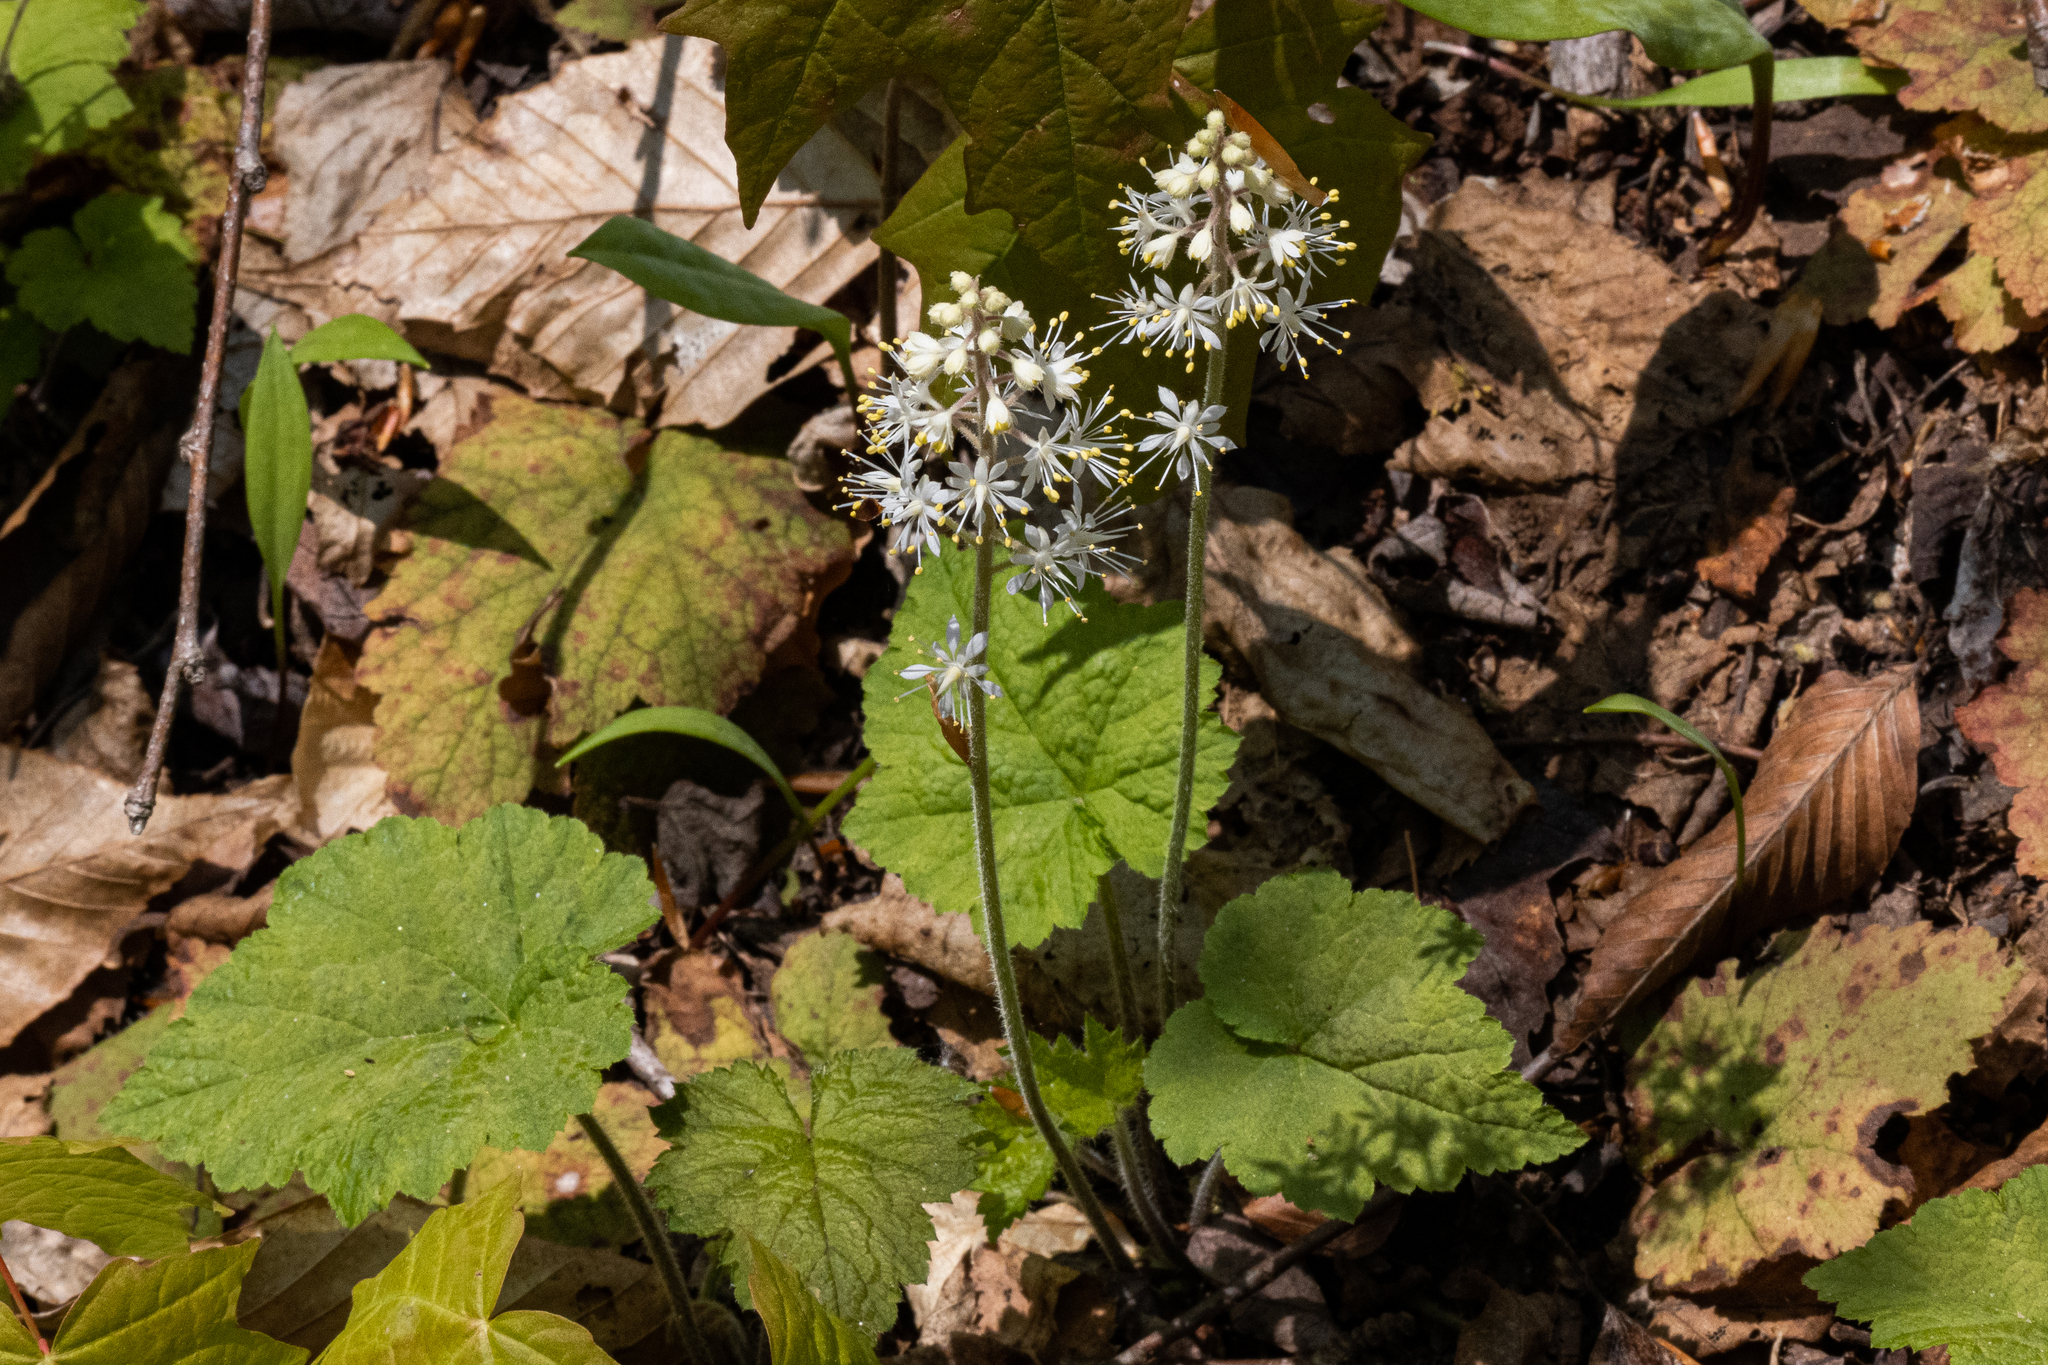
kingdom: Plantae
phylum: Tracheophyta
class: Magnoliopsida
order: Saxifragales
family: Saxifragaceae
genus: Tiarella
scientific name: Tiarella stolonifera
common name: Stoloniferous foamflower
